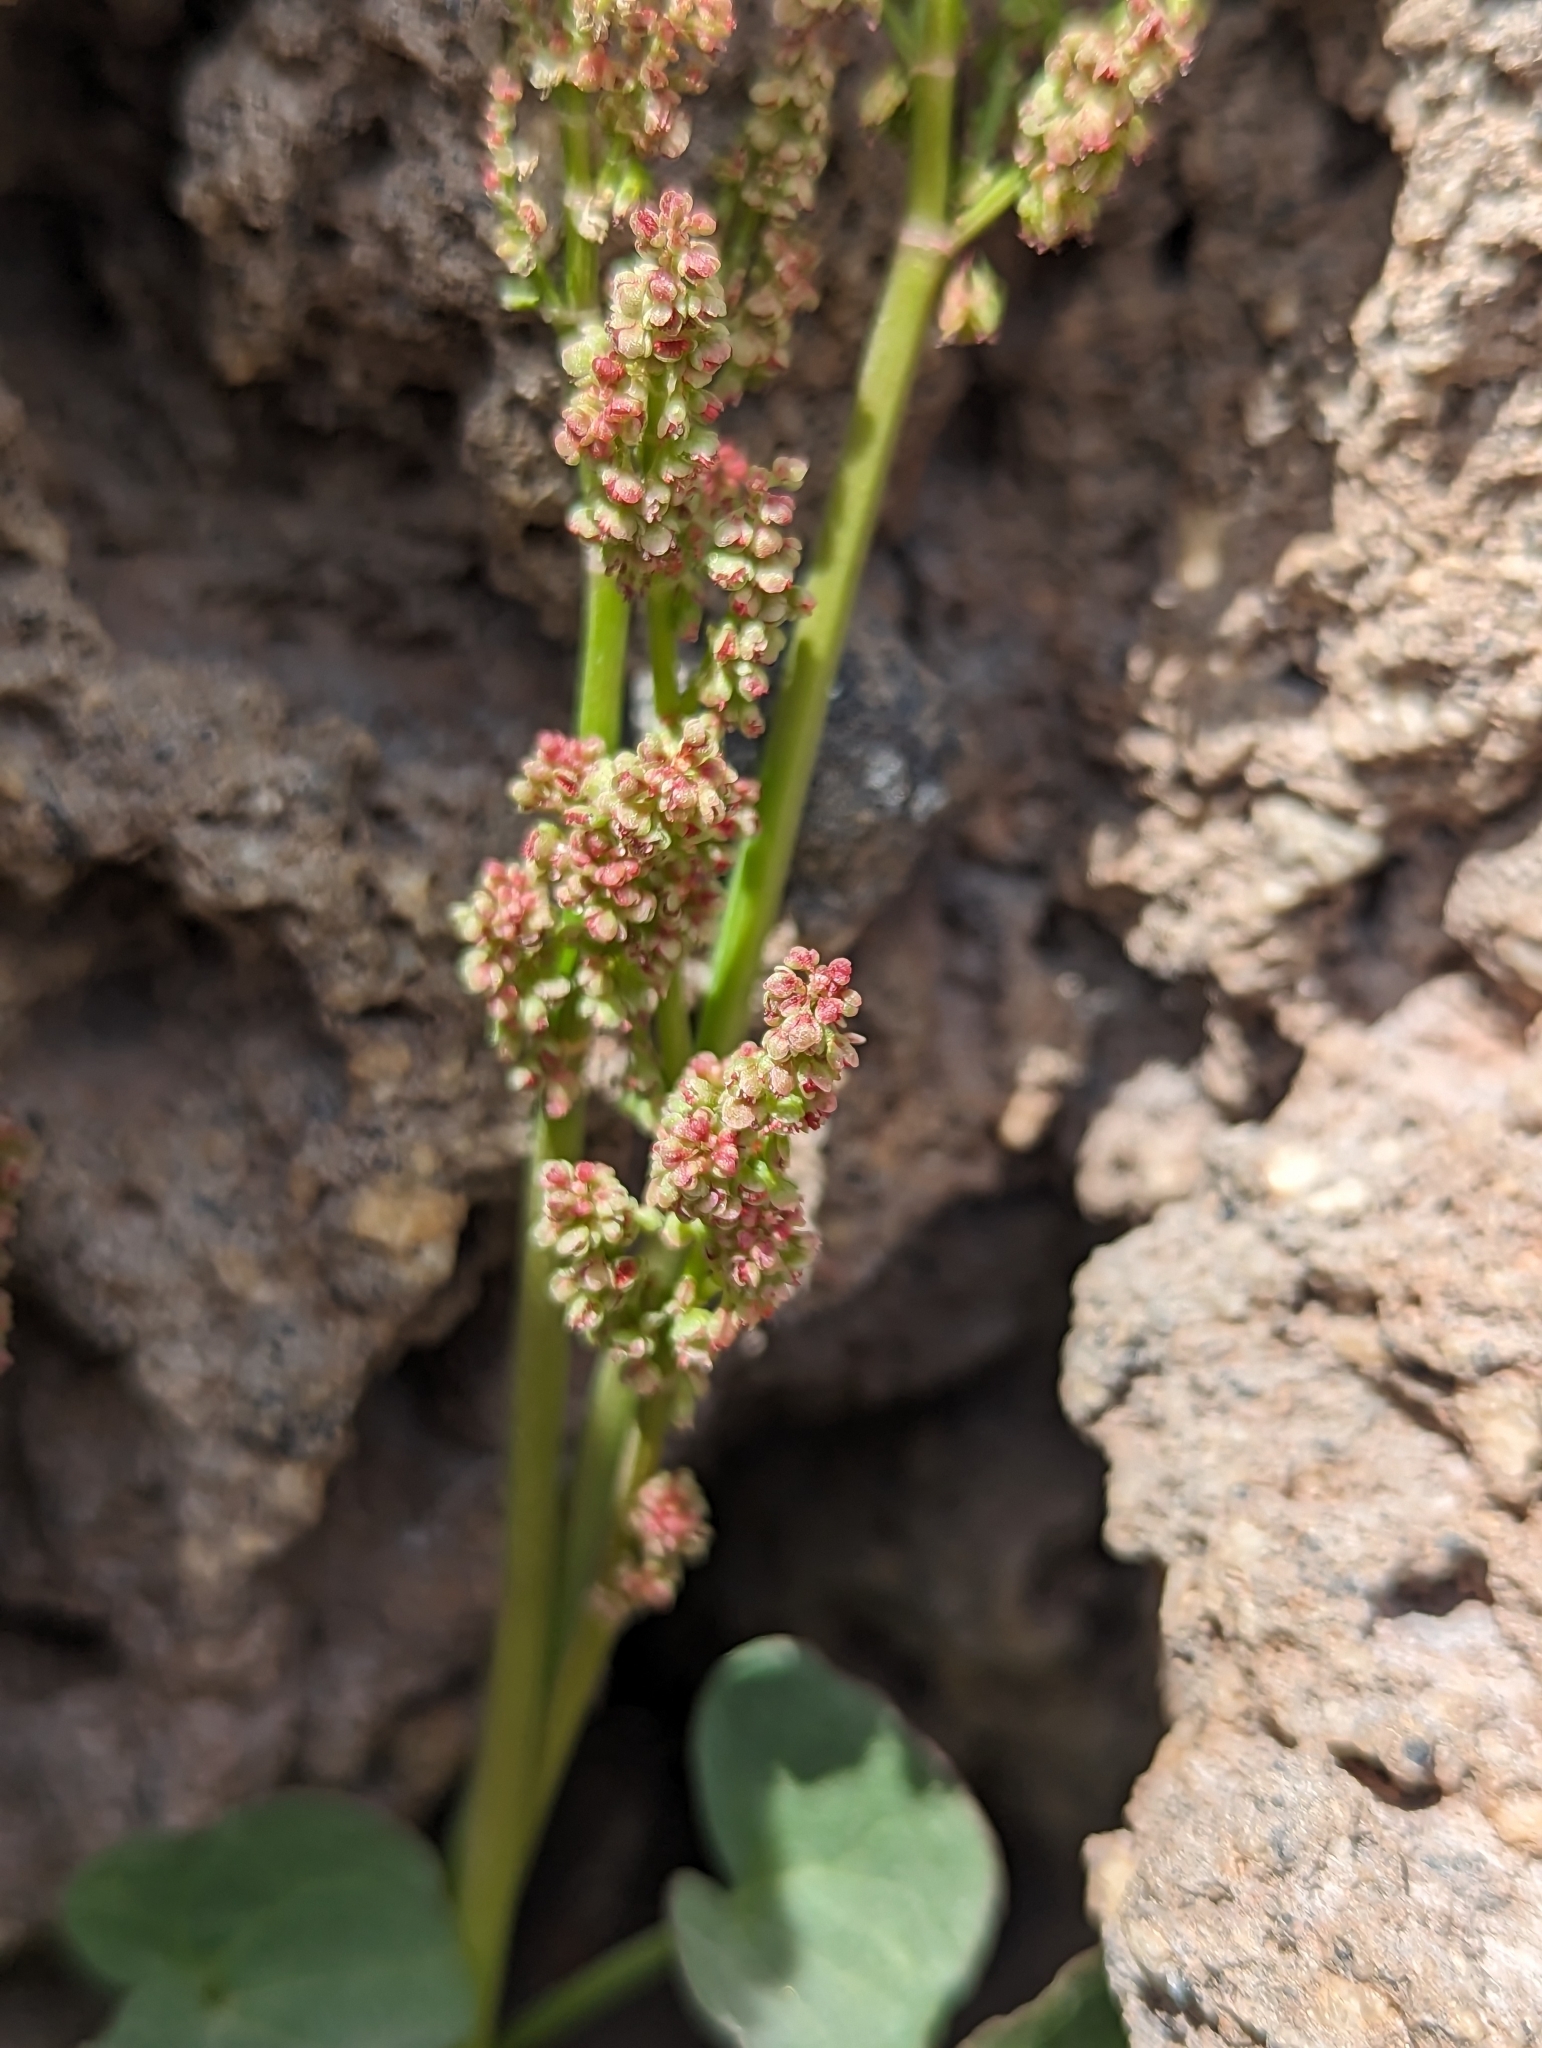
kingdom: Plantae
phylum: Tracheophyta
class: Magnoliopsida
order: Caryophyllales
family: Polygonaceae
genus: Oxyria
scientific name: Oxyria digyna
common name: Alpine mountain-sorrel
